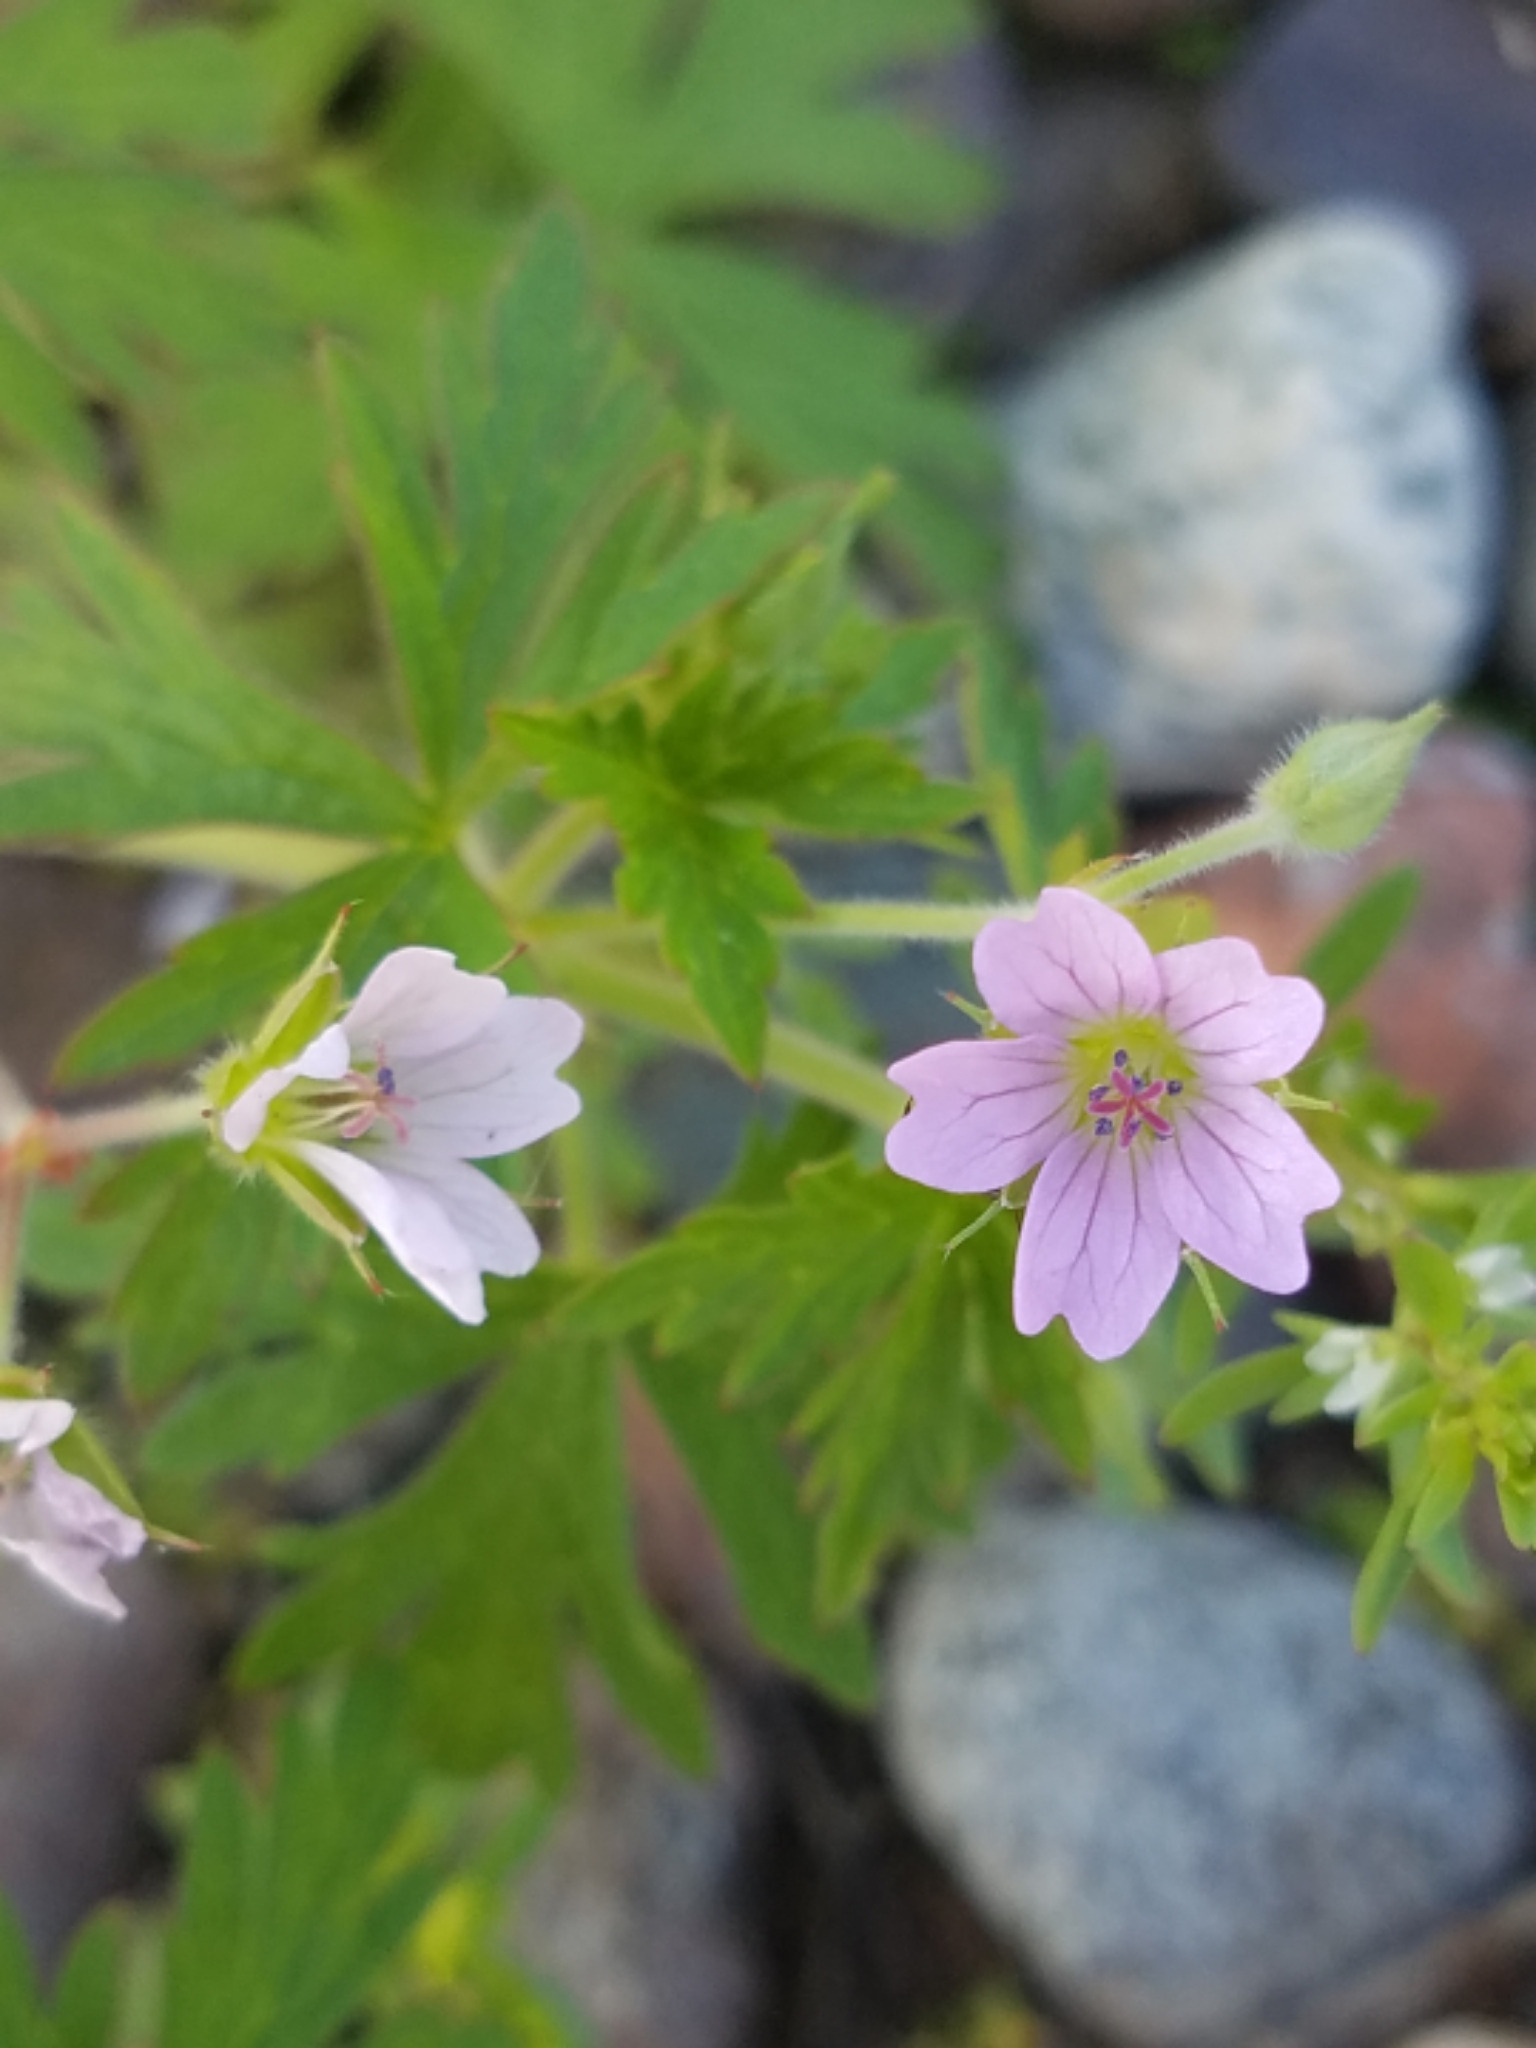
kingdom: Plantae
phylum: Tracheophyta
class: Magnoliopsida
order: Geraniales
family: Geraniaceae
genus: Geranium
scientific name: Geranium bicknellii
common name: Bicknell's cranesbill
